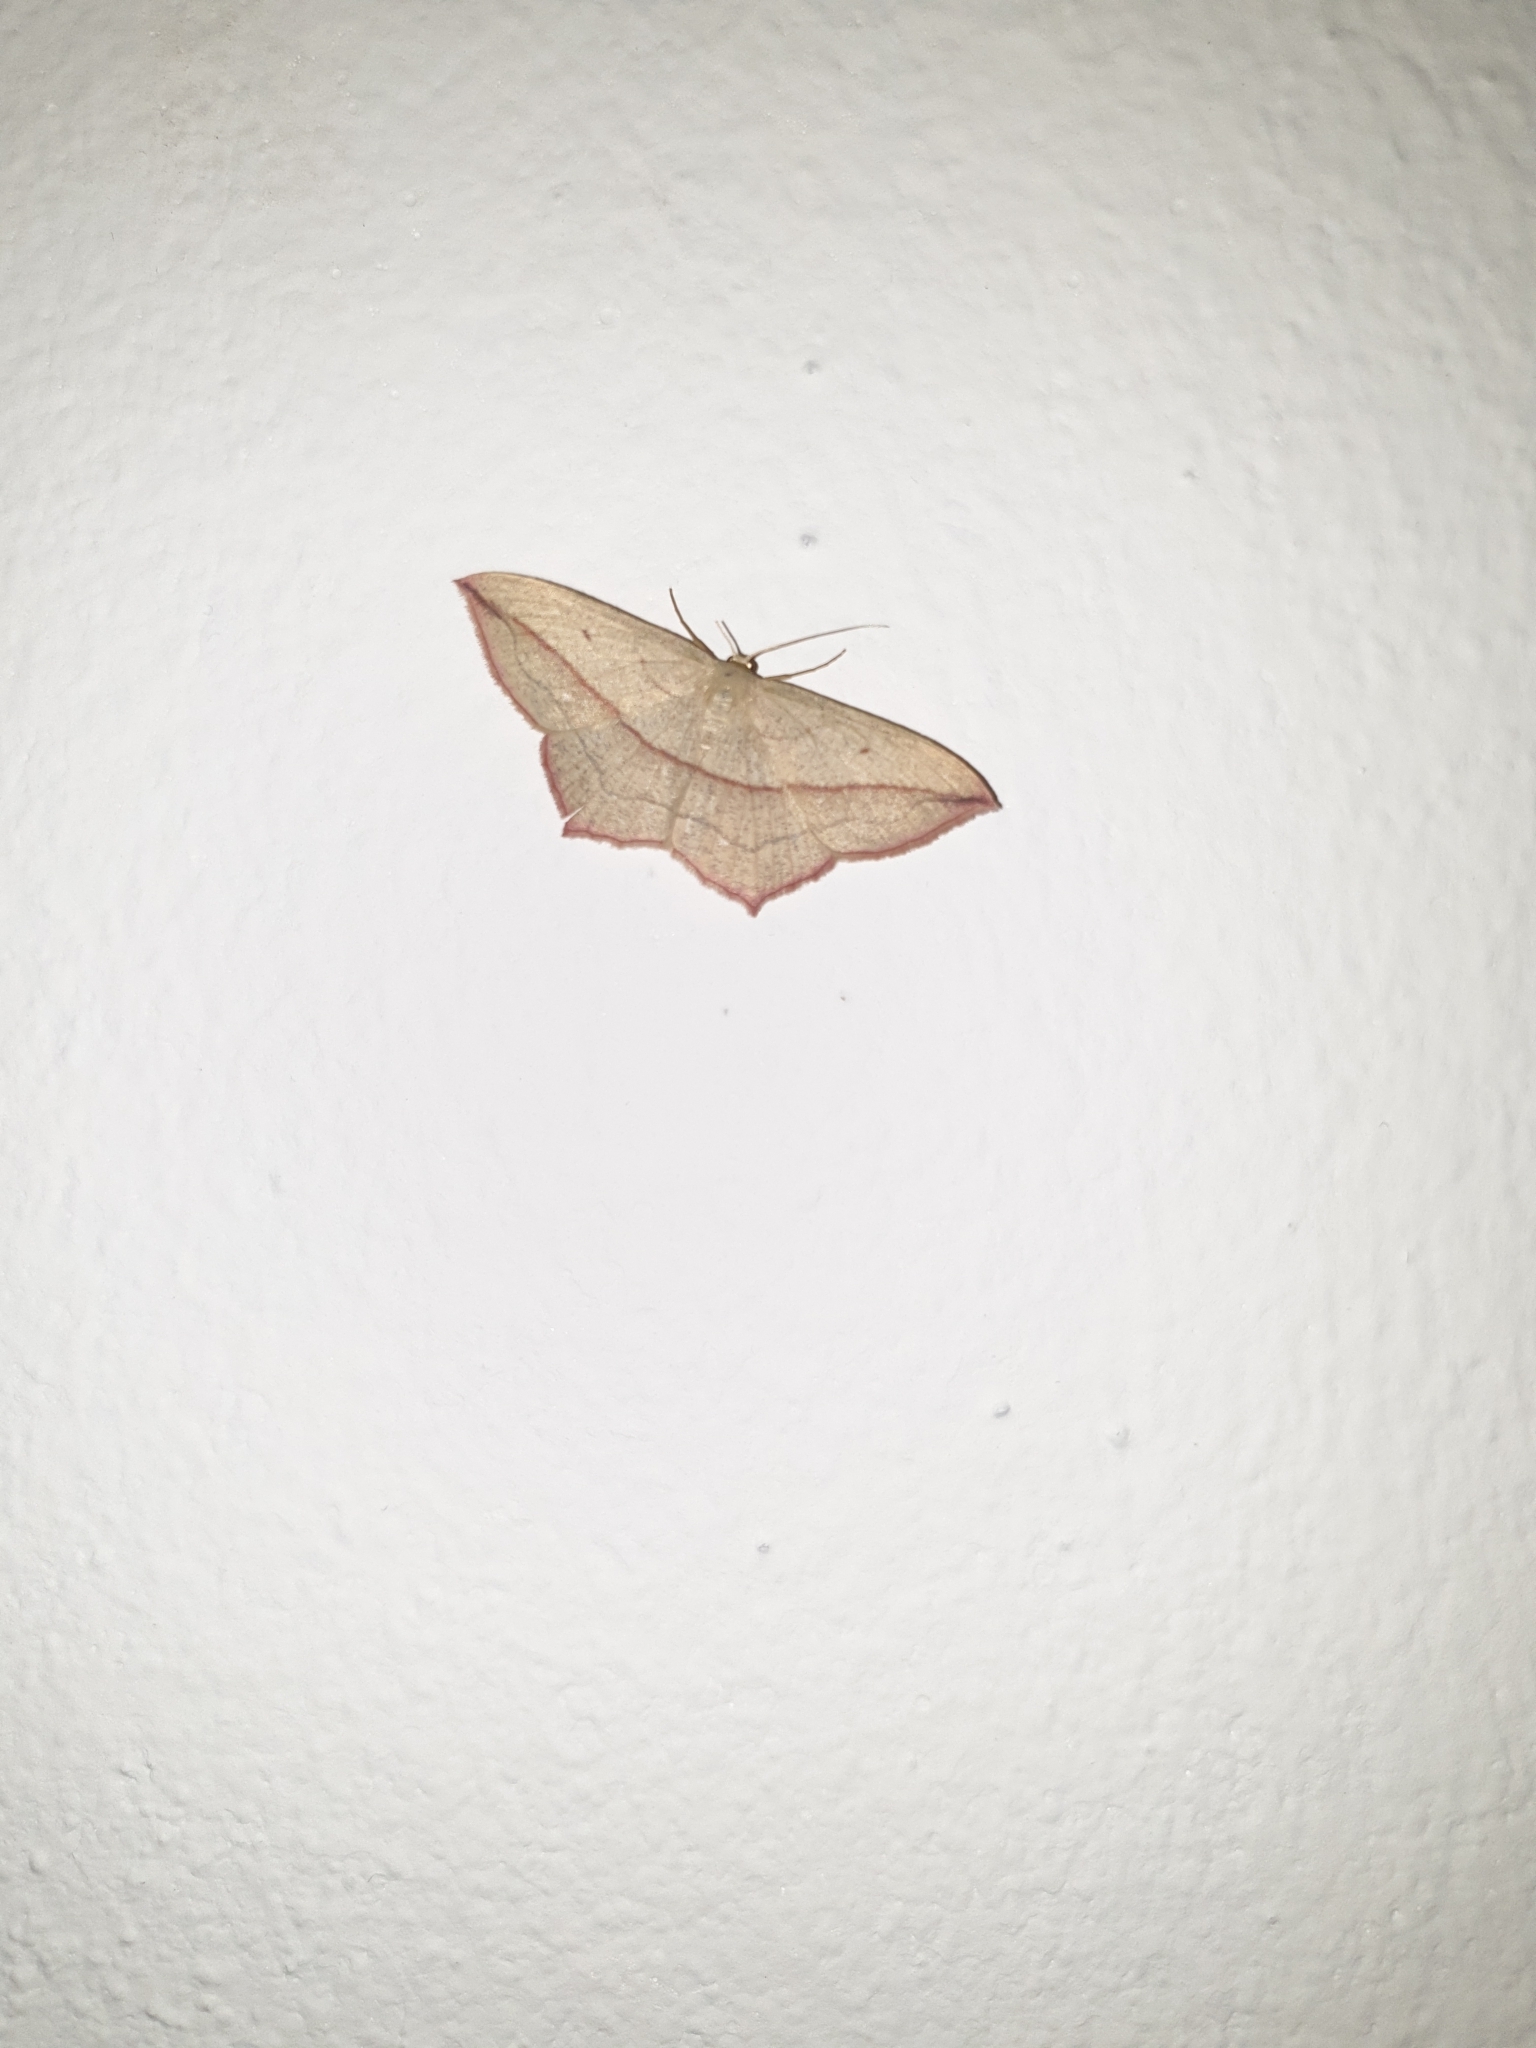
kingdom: Animalia
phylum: Arthropoda
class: Insecta
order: Lepidoptera
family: Geometridae
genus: Timandra
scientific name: Timandra comae
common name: Blood-vein
